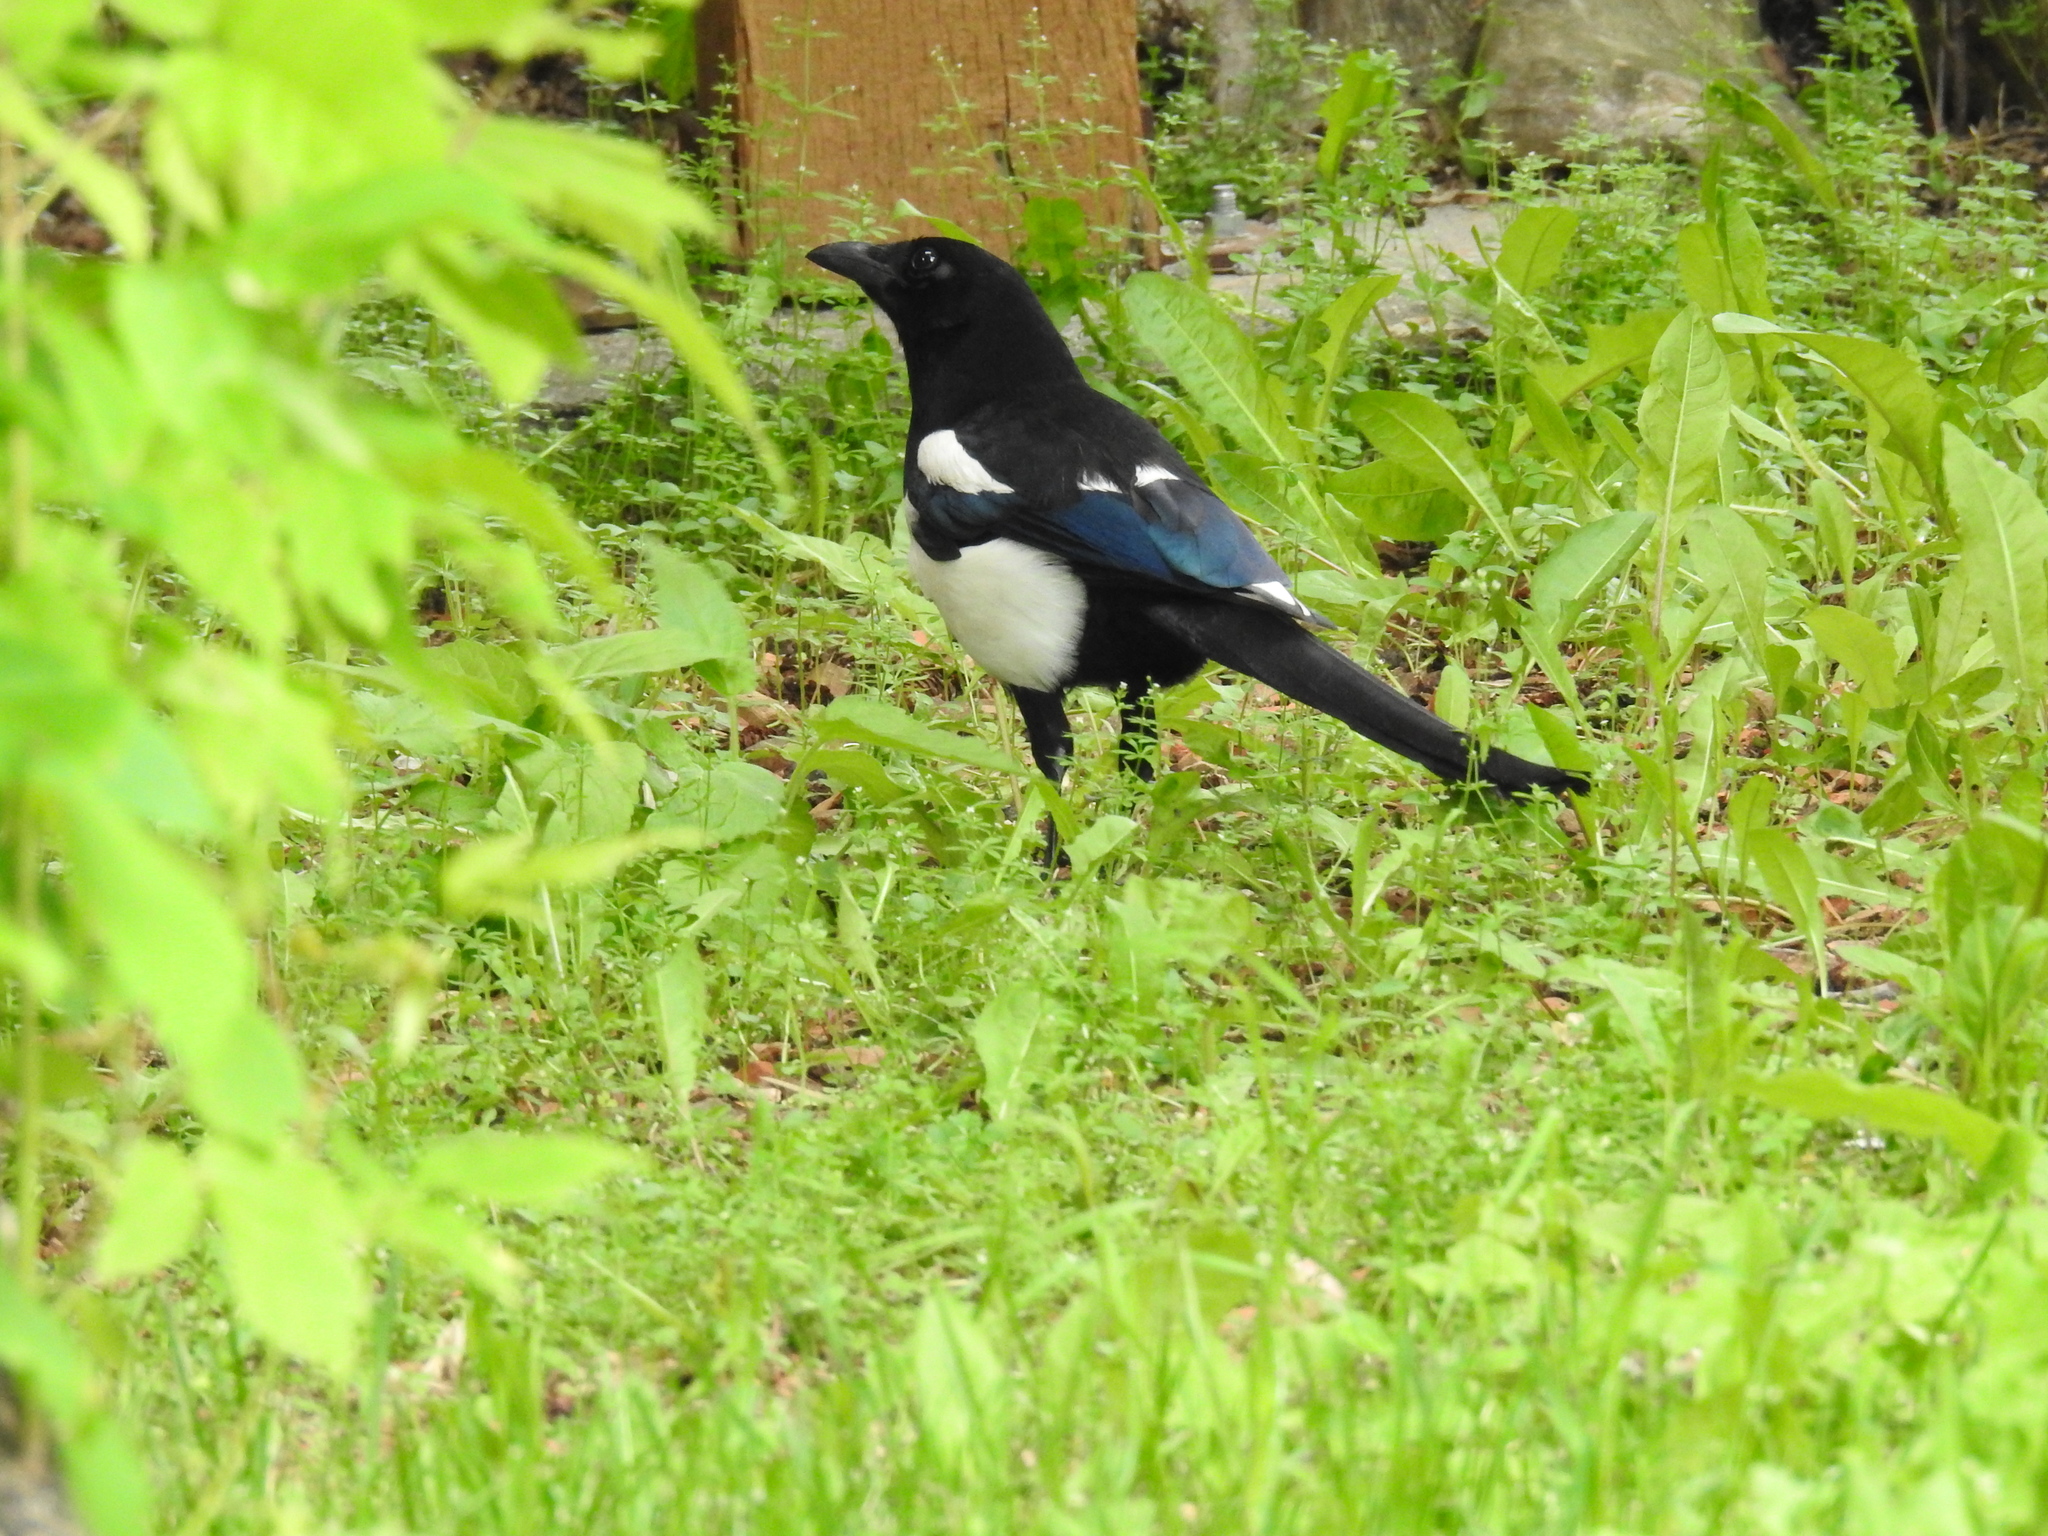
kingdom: Animalia
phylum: Chordata
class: Aves
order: Passeriformes
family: Corvidae
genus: Pica
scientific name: Pica hudsonia
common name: Black-billed magpie
